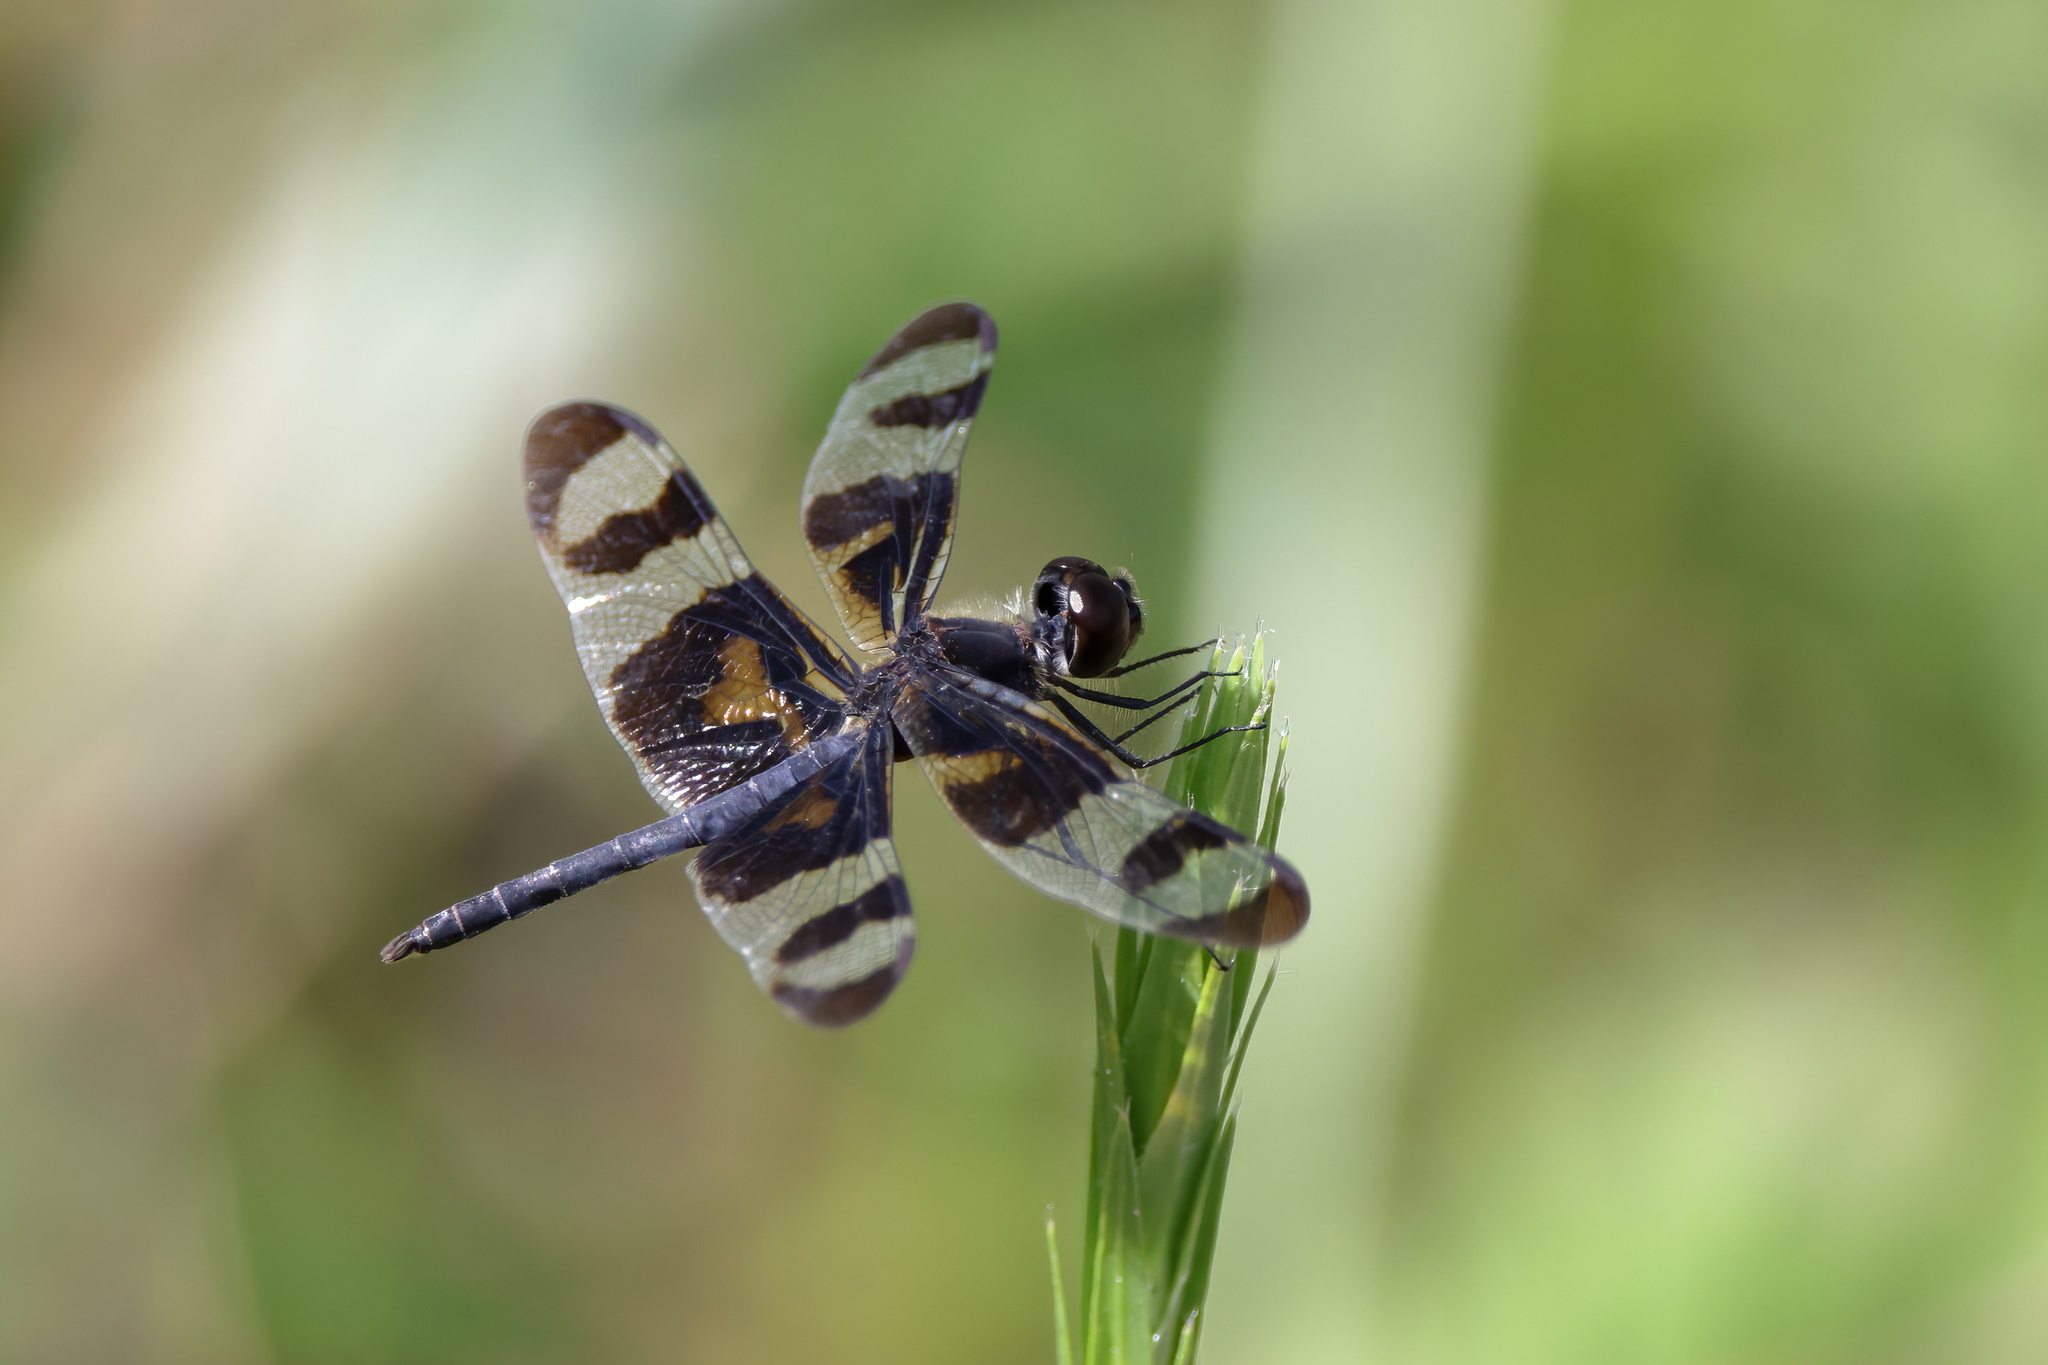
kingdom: Animalia
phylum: Arthropoda
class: Insecta
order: Odonata
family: Libellulidae
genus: Celithemis
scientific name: Celithemis fasciata
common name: Banded pennant
